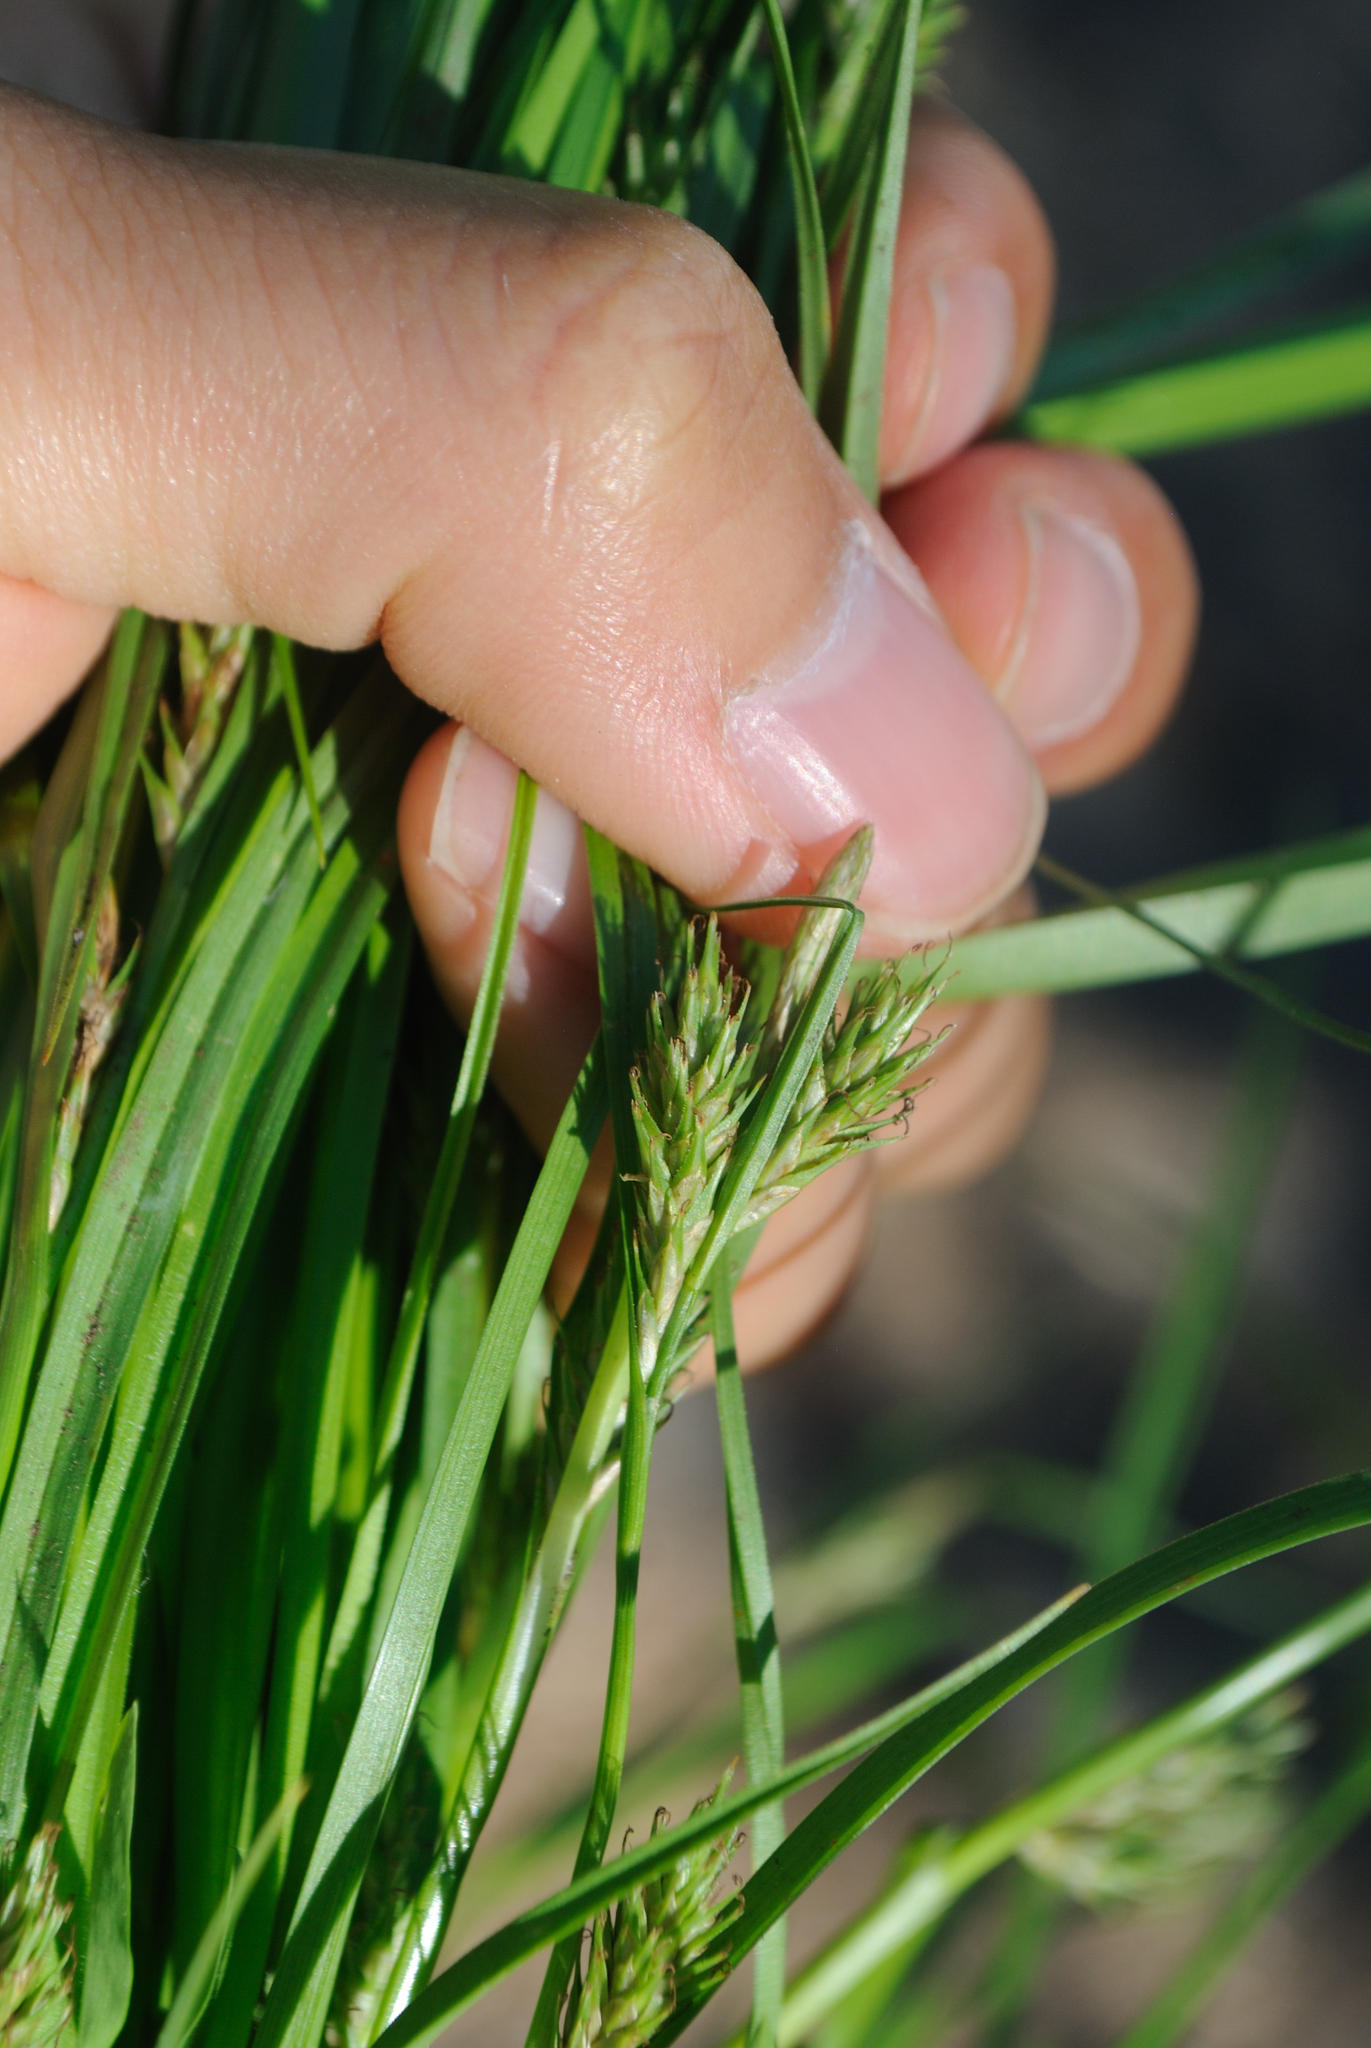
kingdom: Plantae
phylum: Tracheophyta
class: Liliopsida
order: Poales
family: Cyperaceae
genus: Carex
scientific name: Carex secalina
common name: Rye sedge
